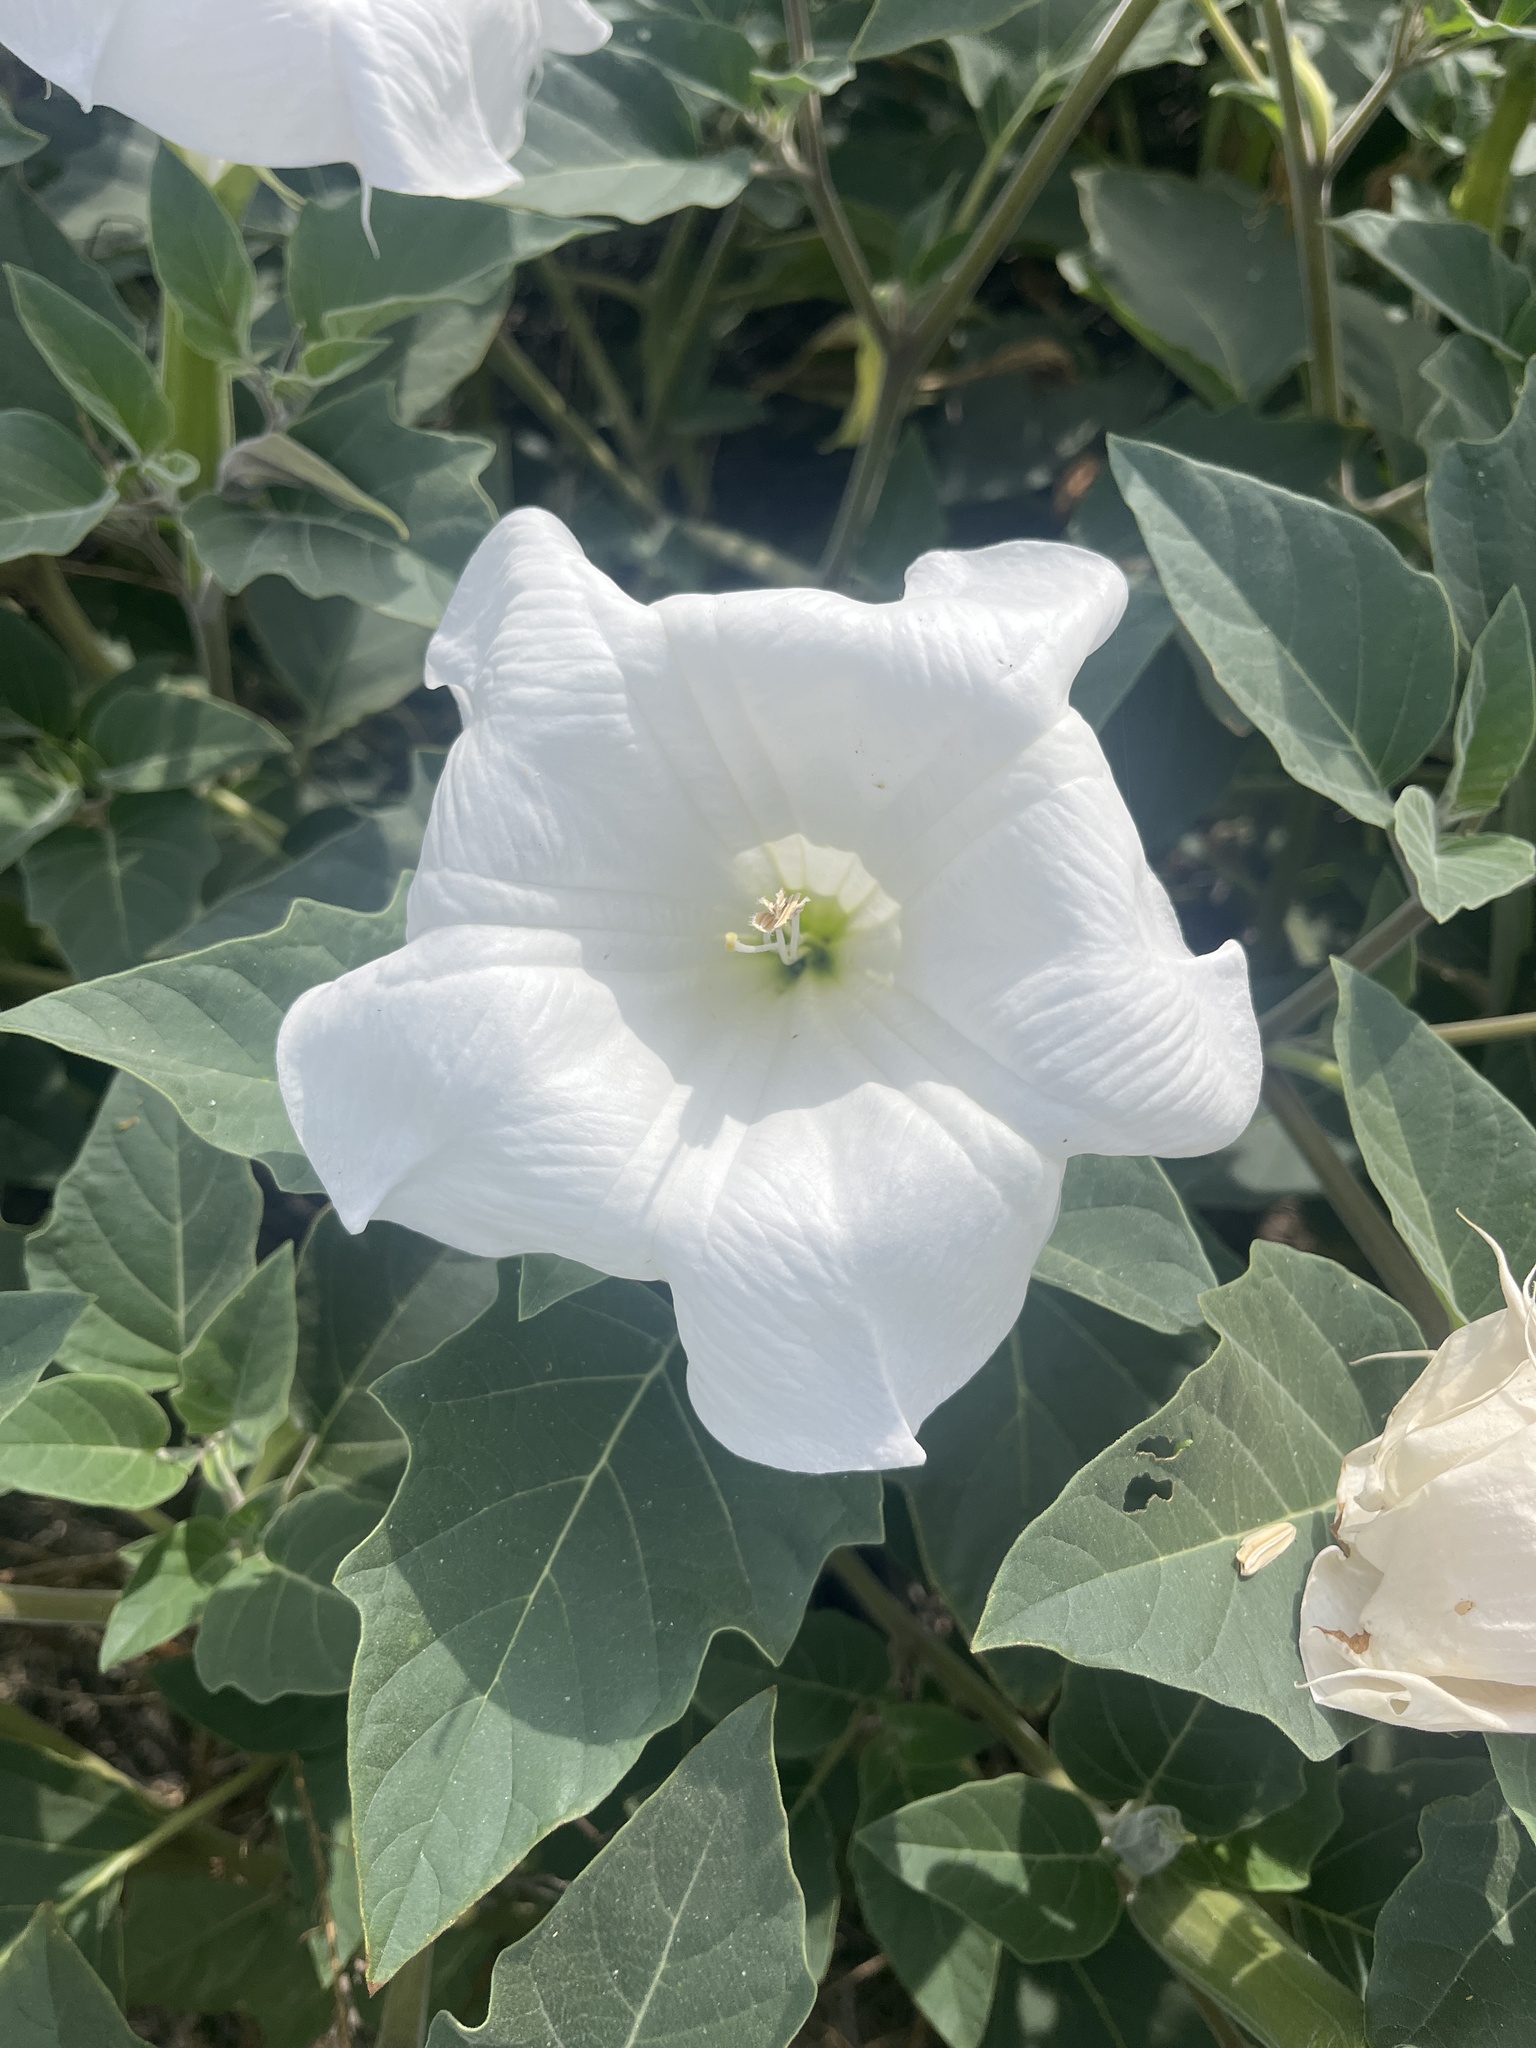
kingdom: Plantae
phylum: Tracheophyta
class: Magnoliopsida
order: Solanales
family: Solanaceae
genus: Datura
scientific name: Datura wrightii
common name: Sacred thorn-apple
